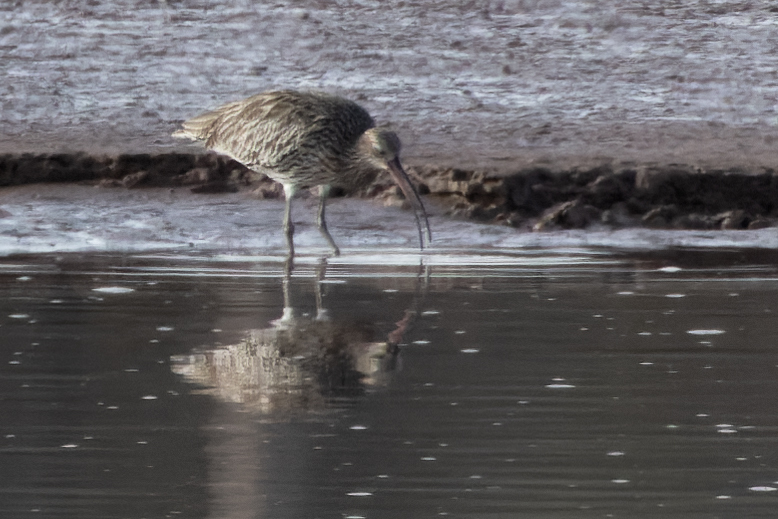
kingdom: Animalia
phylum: Chordata
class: Aves
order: Charadriiformes
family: Scolopacidae
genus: Numenius
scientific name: Numenius arquata
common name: Eurasian curlew
